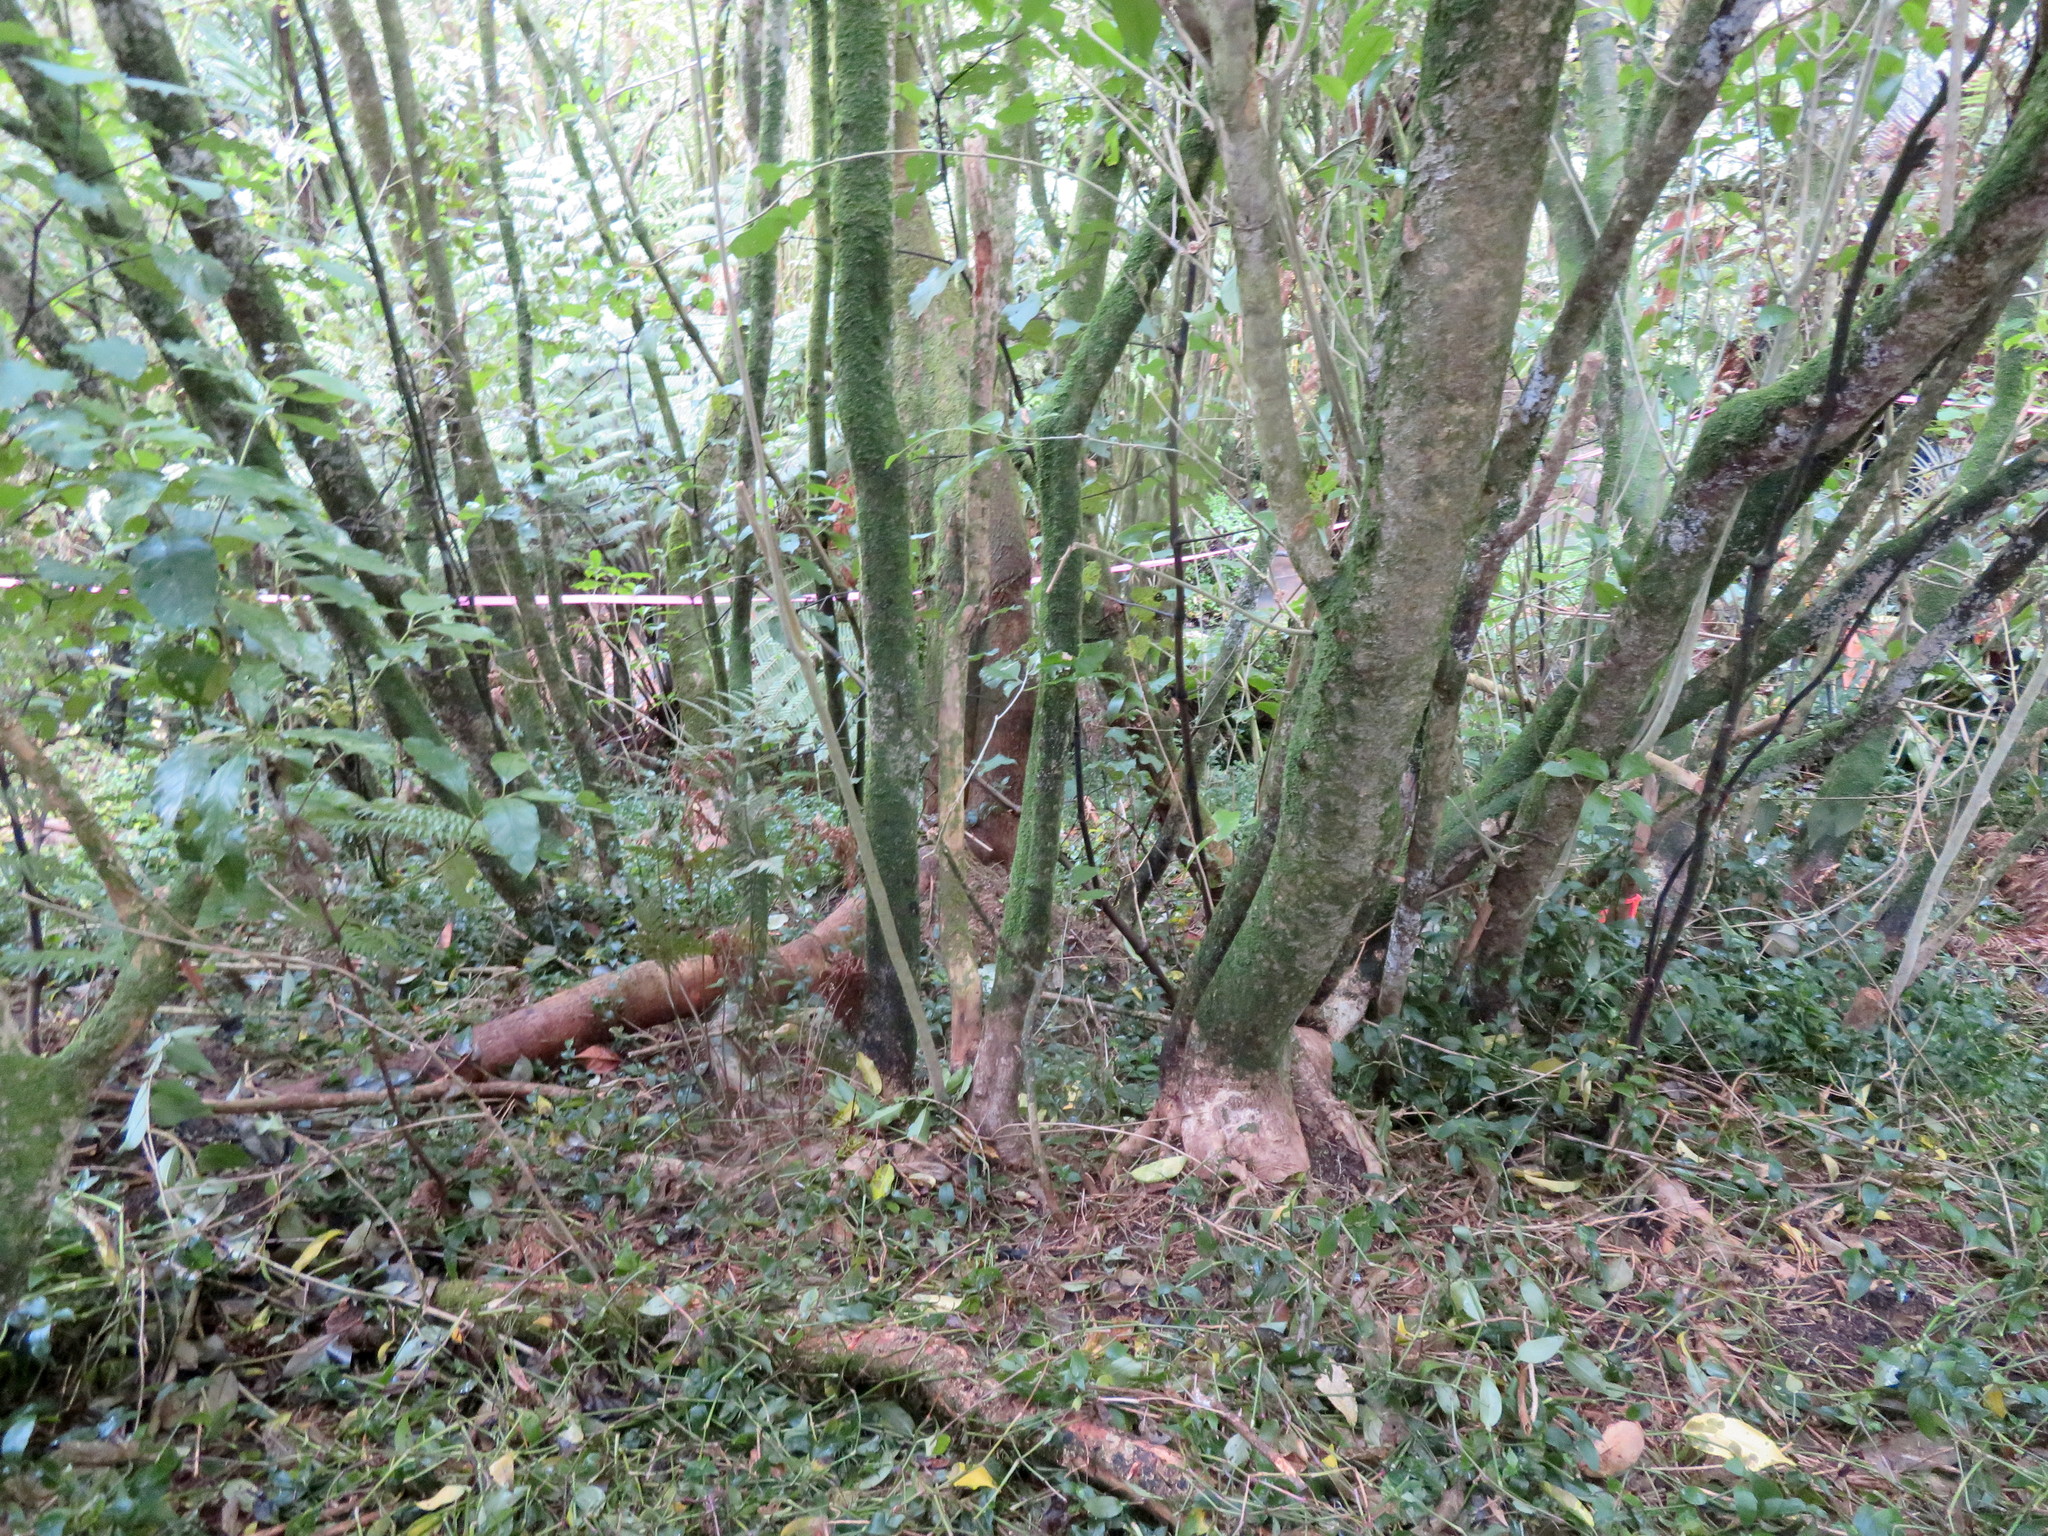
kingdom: Plantae
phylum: Tracheophyta
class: Magnoliopsida
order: Malpighiales
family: Violaceae
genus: Melicytus
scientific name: Melicytus ramiflorus
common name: Mahoe
